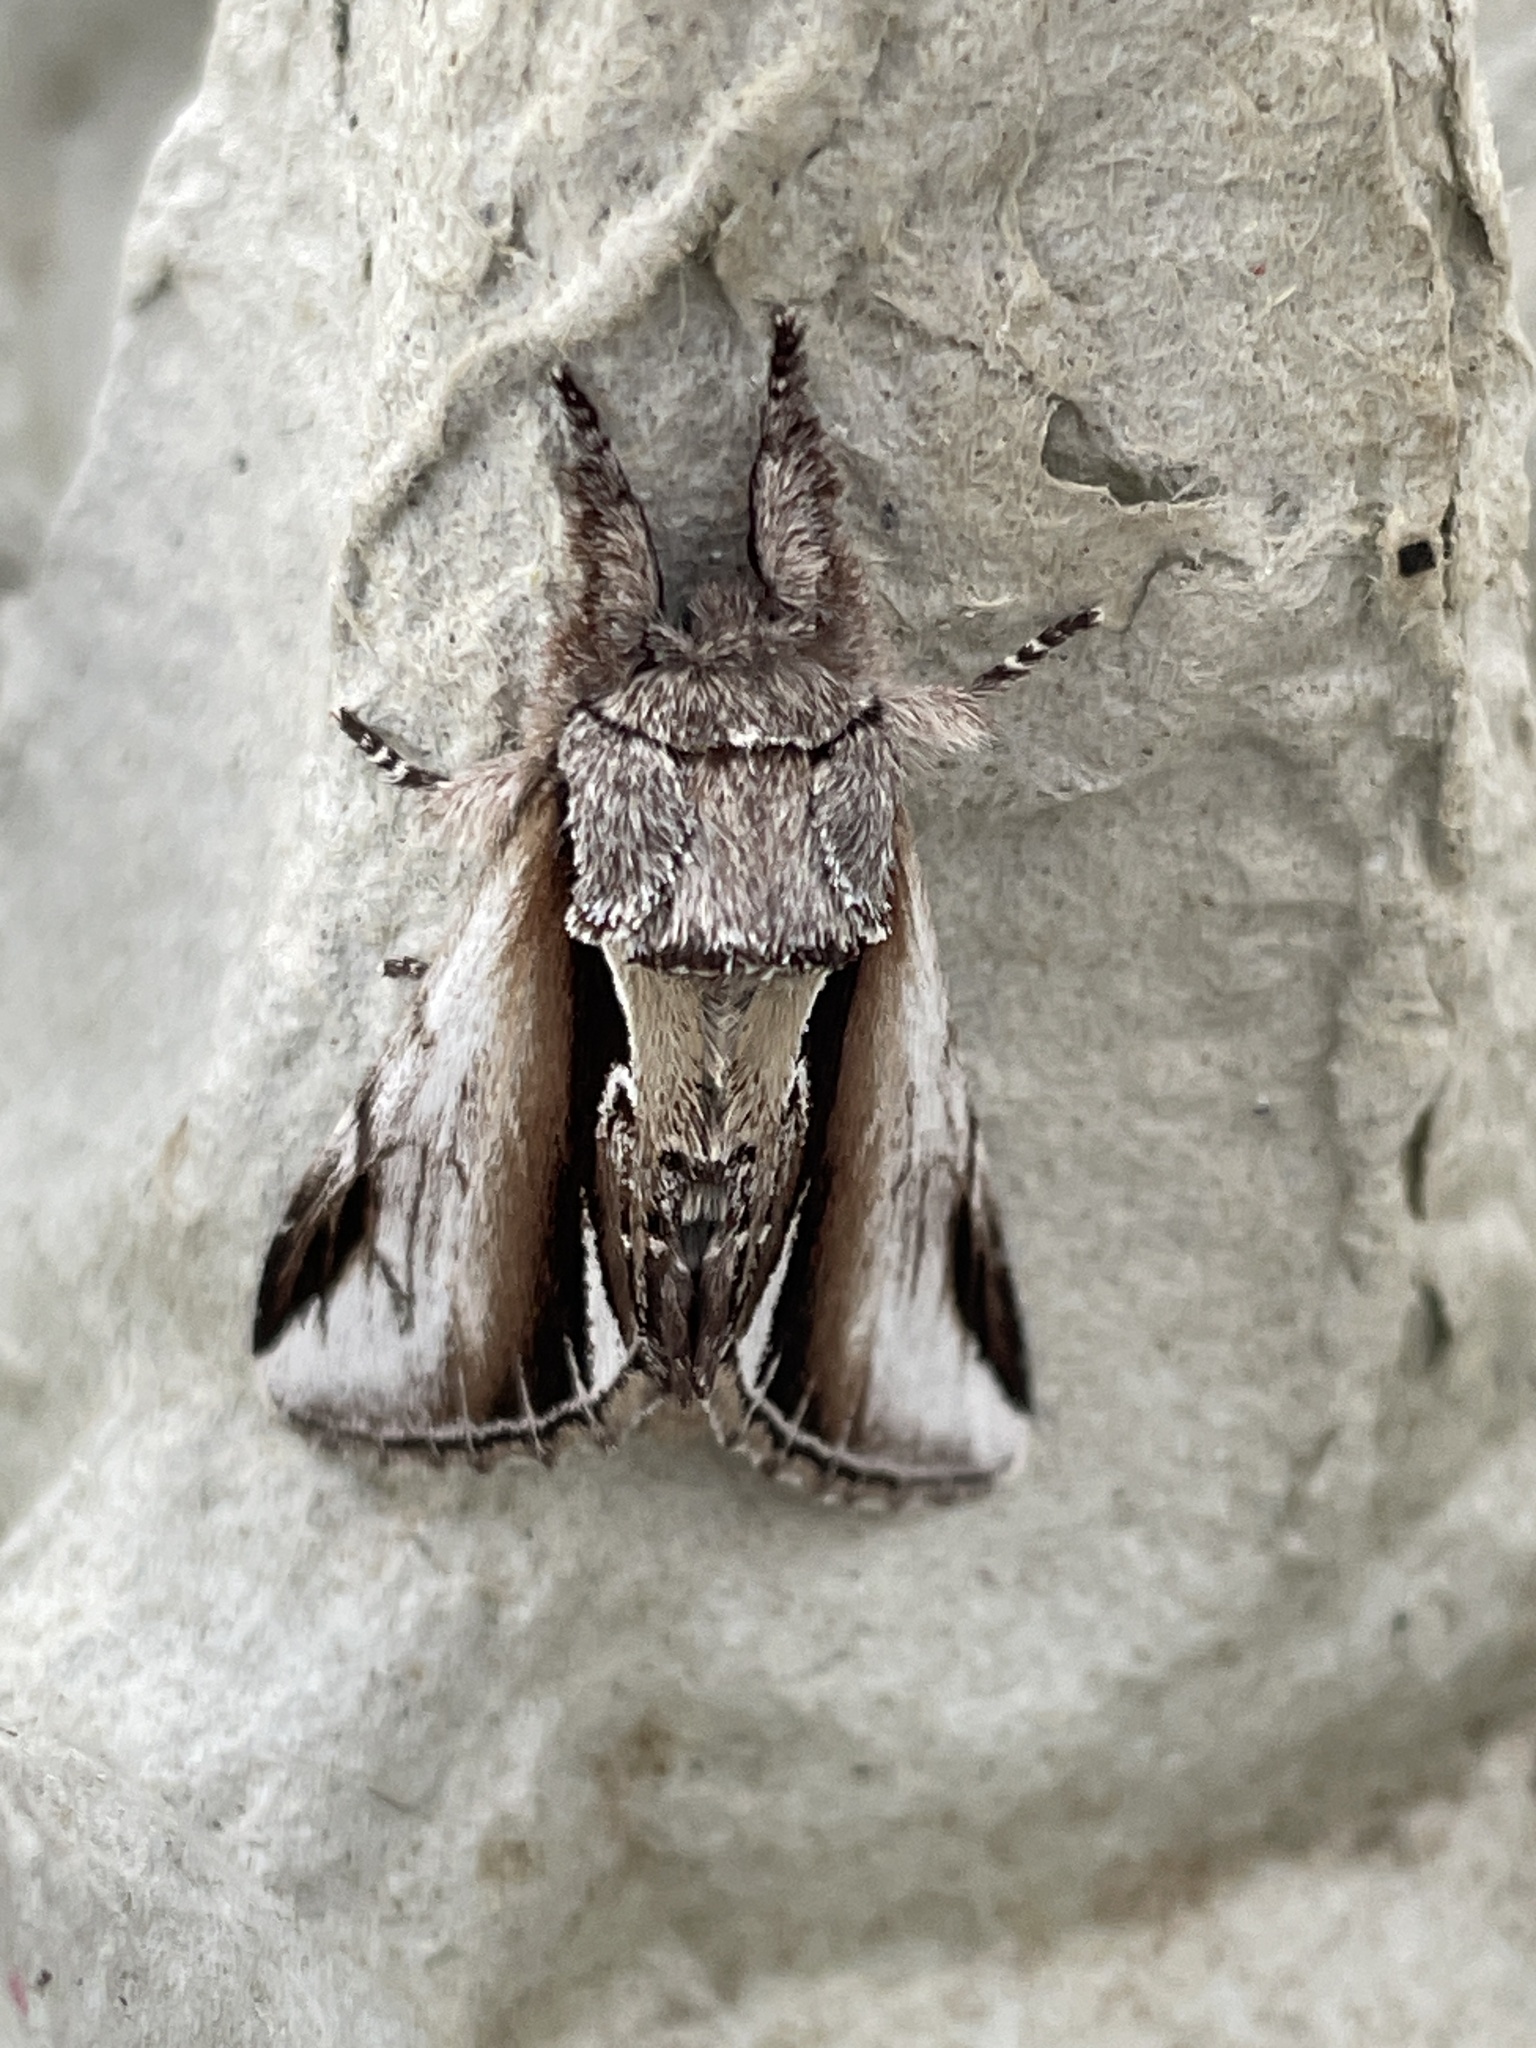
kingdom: Animalia
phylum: Arthropoda
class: Insecta
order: Lepidoptera
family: Notodontidae
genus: Pheosia
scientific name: Pheosia gnoma
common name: Lesser swallow prominent
